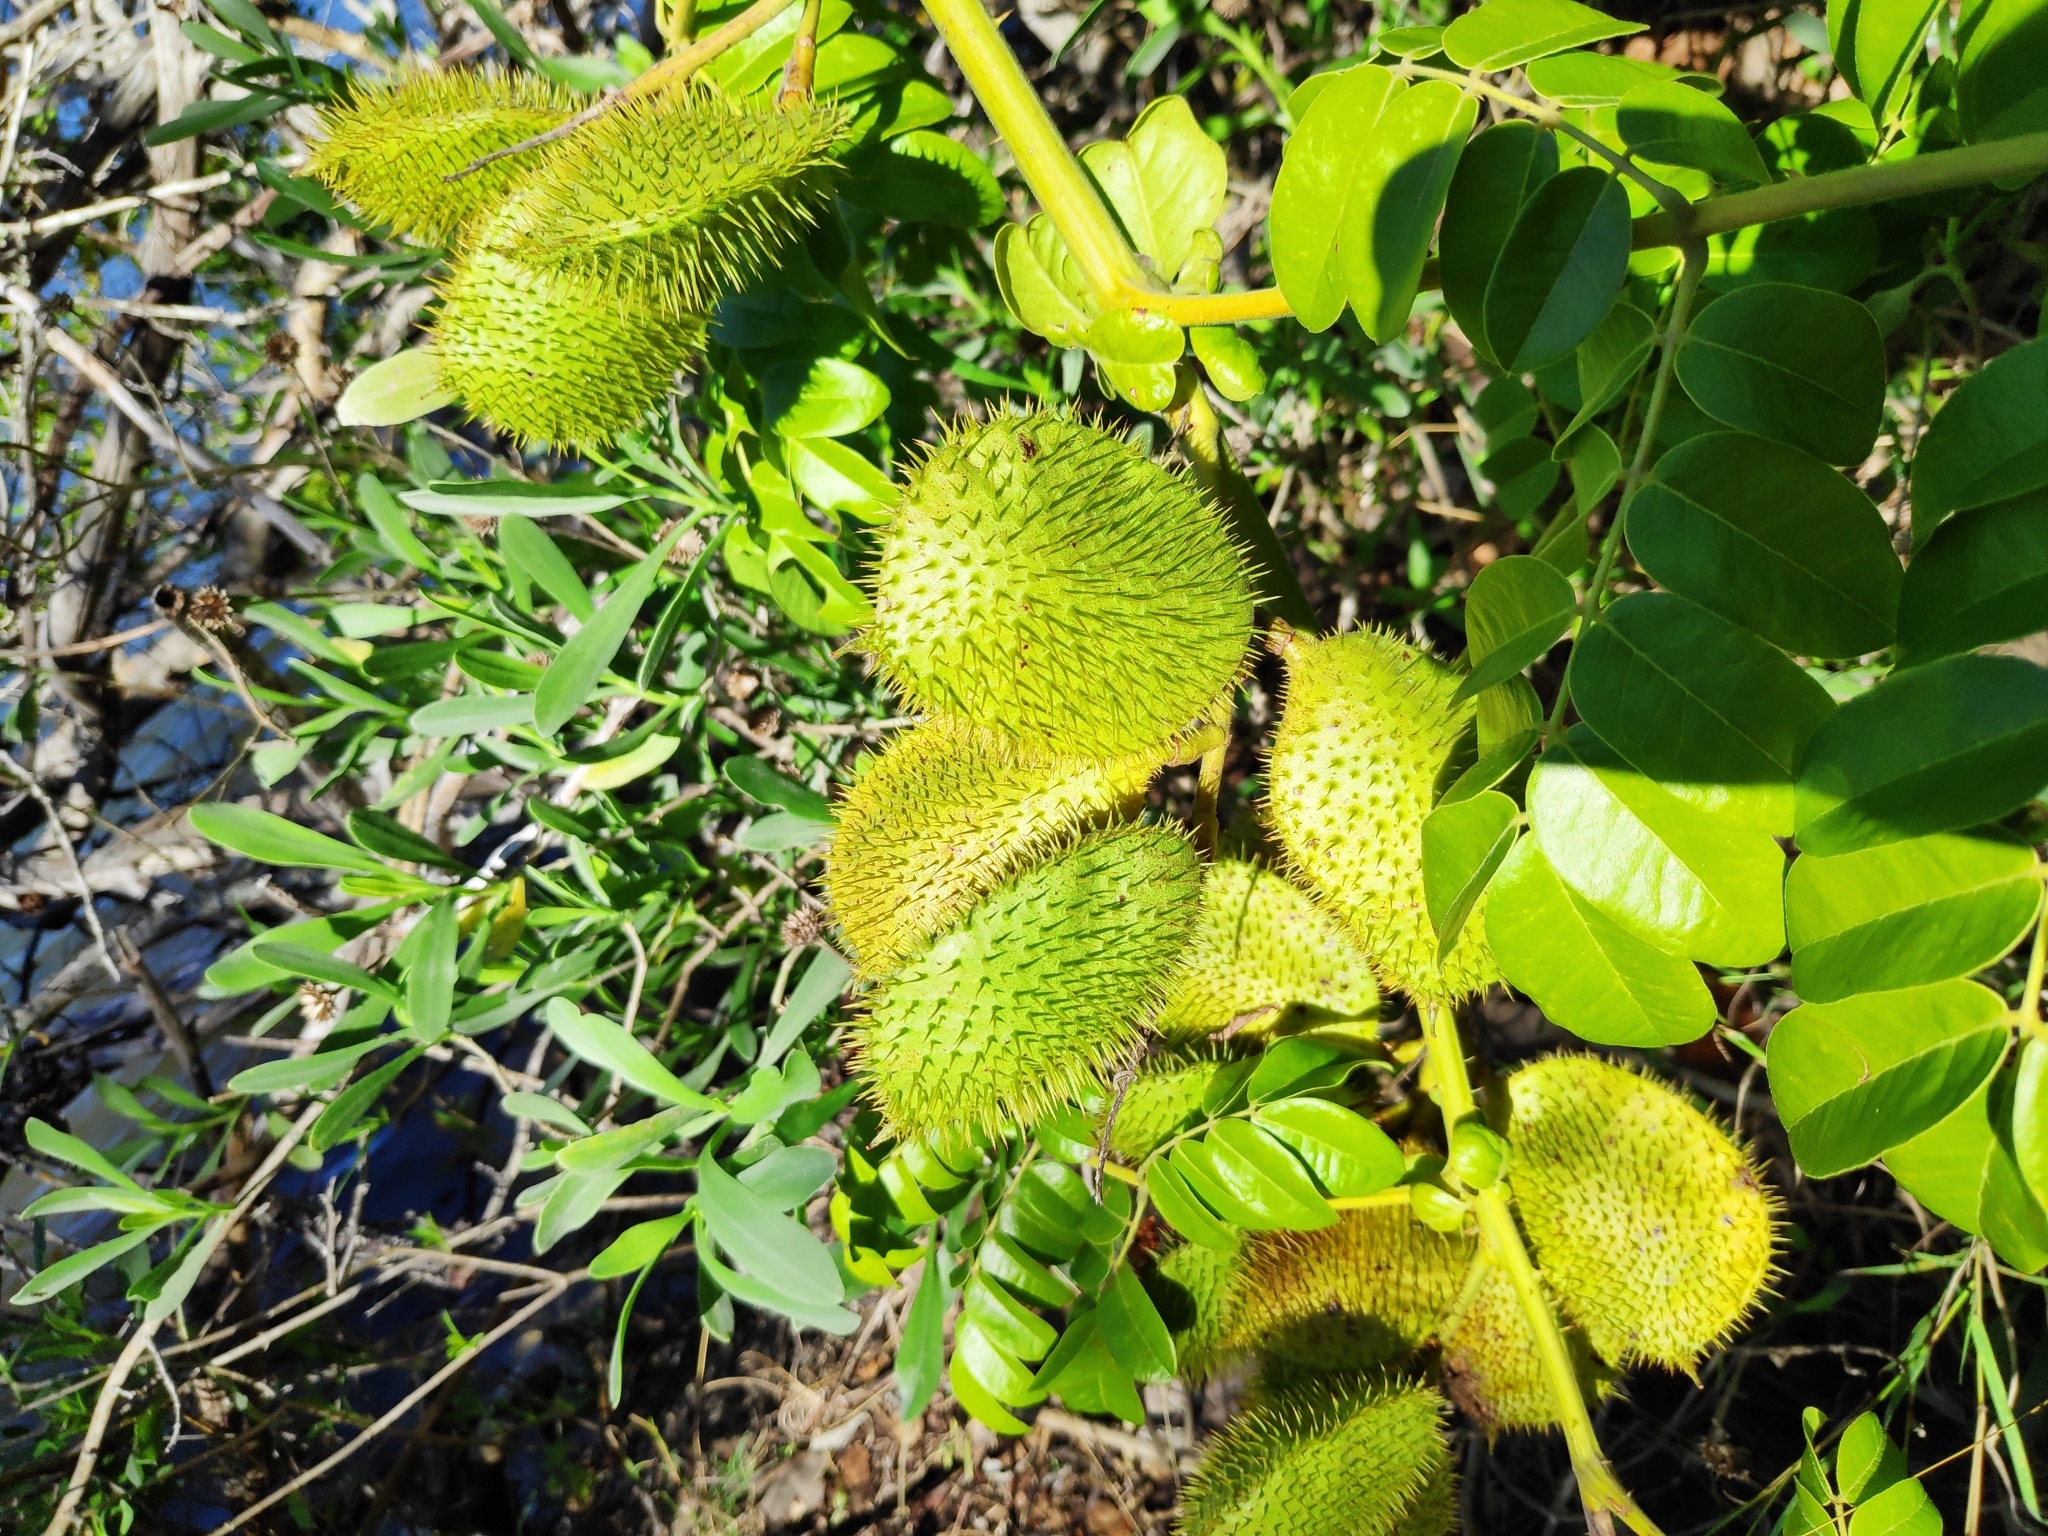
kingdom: Plantae
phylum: Tracheophyta
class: Magnoliopsida
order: Fabales
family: Fabaceae
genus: Guilandina
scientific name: Guilandina bonduc
